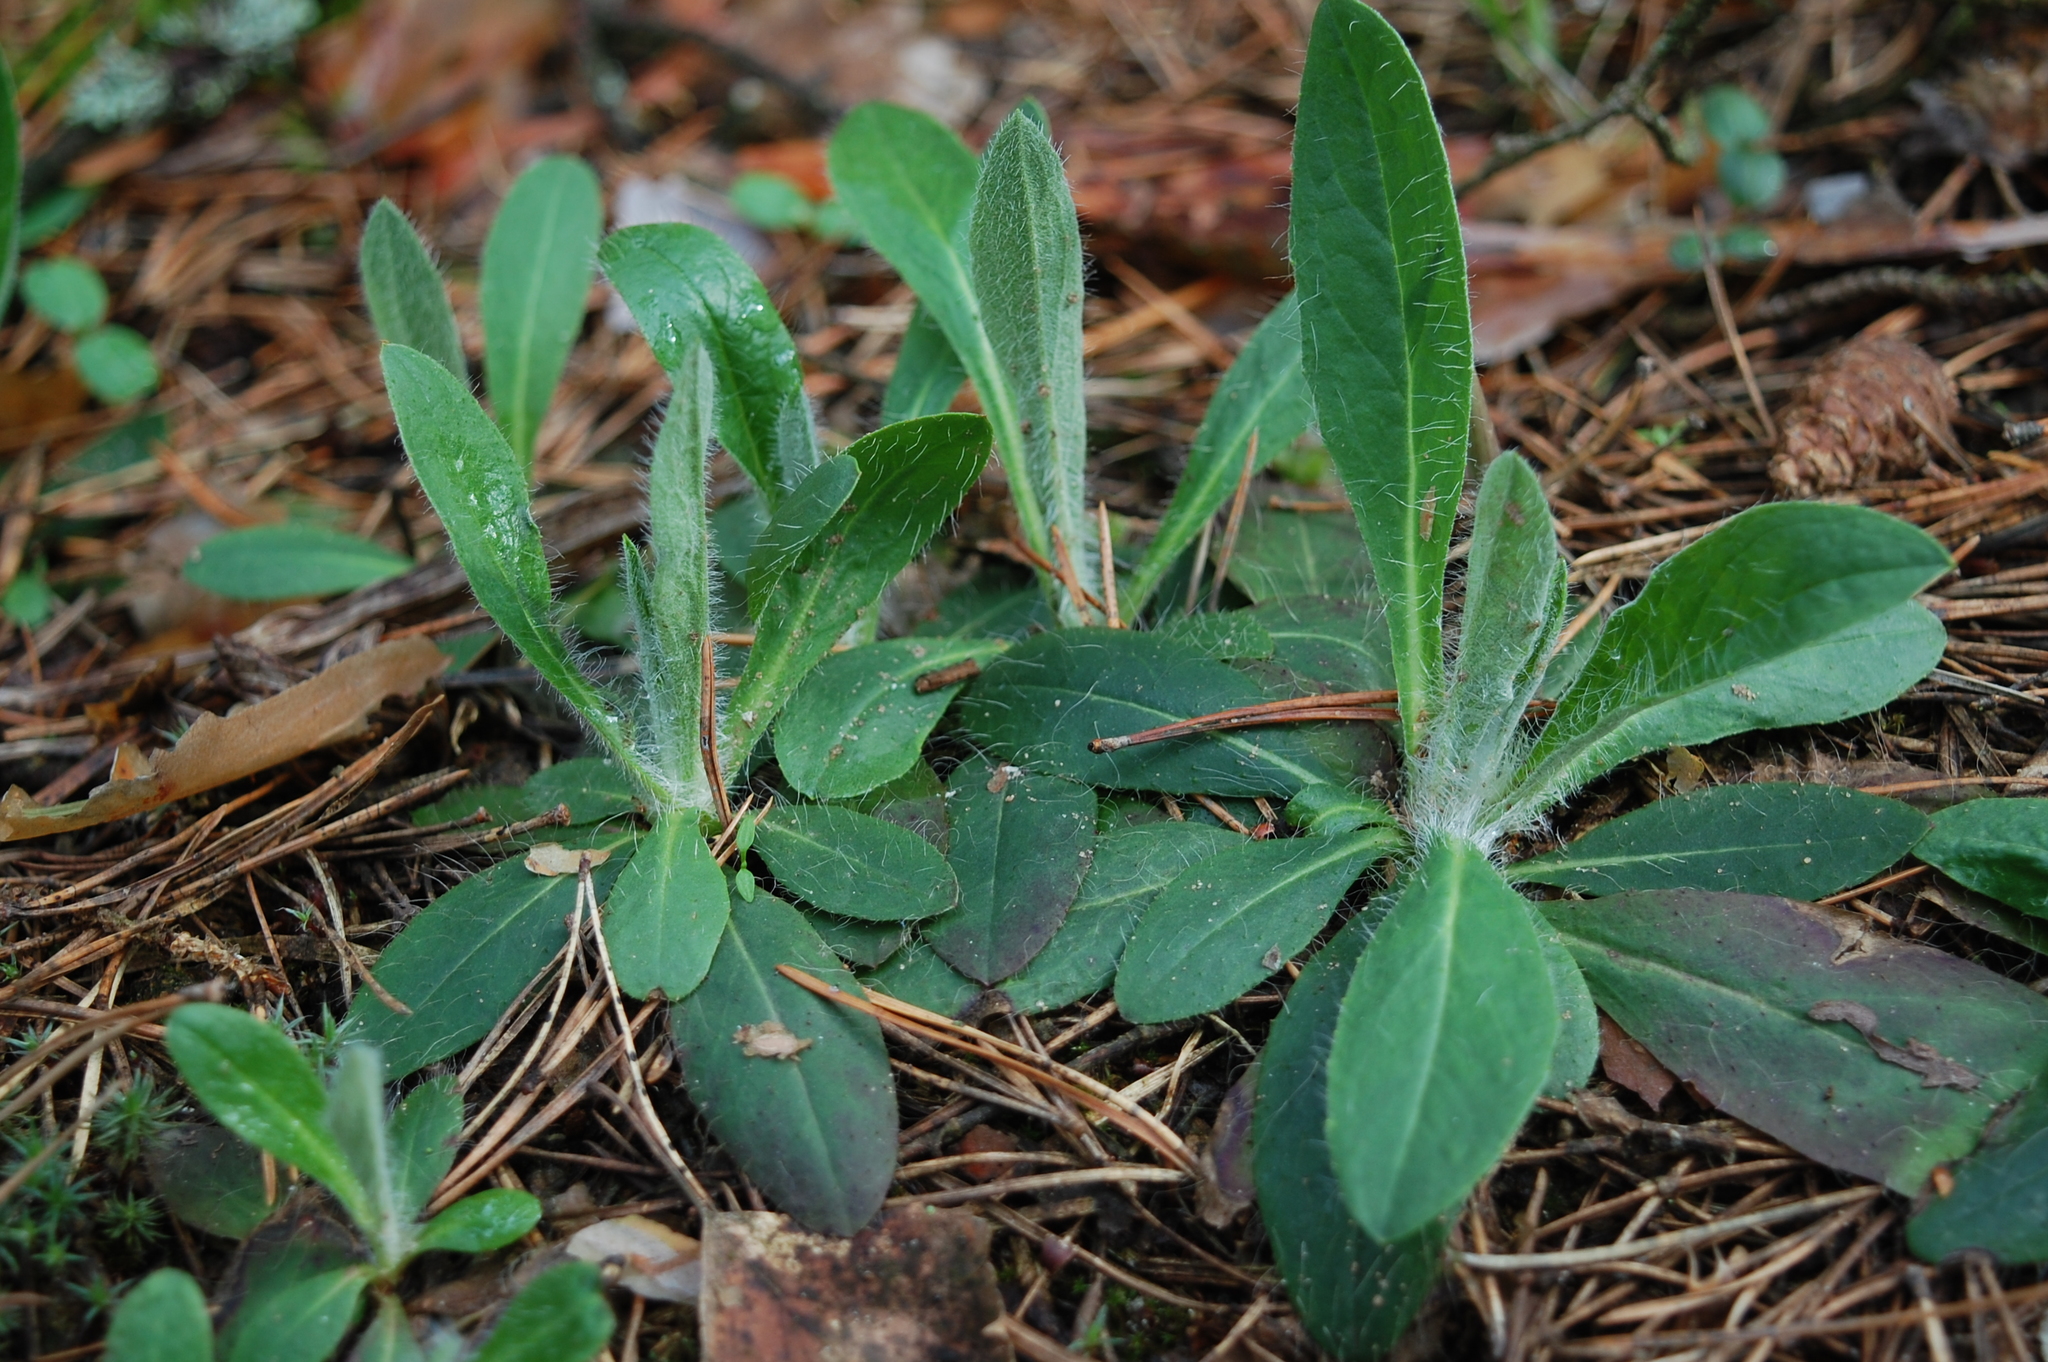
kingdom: Plantae
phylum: Tracheophyta
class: Magnoliopsida
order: Asterales
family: Asteraceae
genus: Pilosella
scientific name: Pilosella officinarum
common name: Mouse-ear hawkweed
